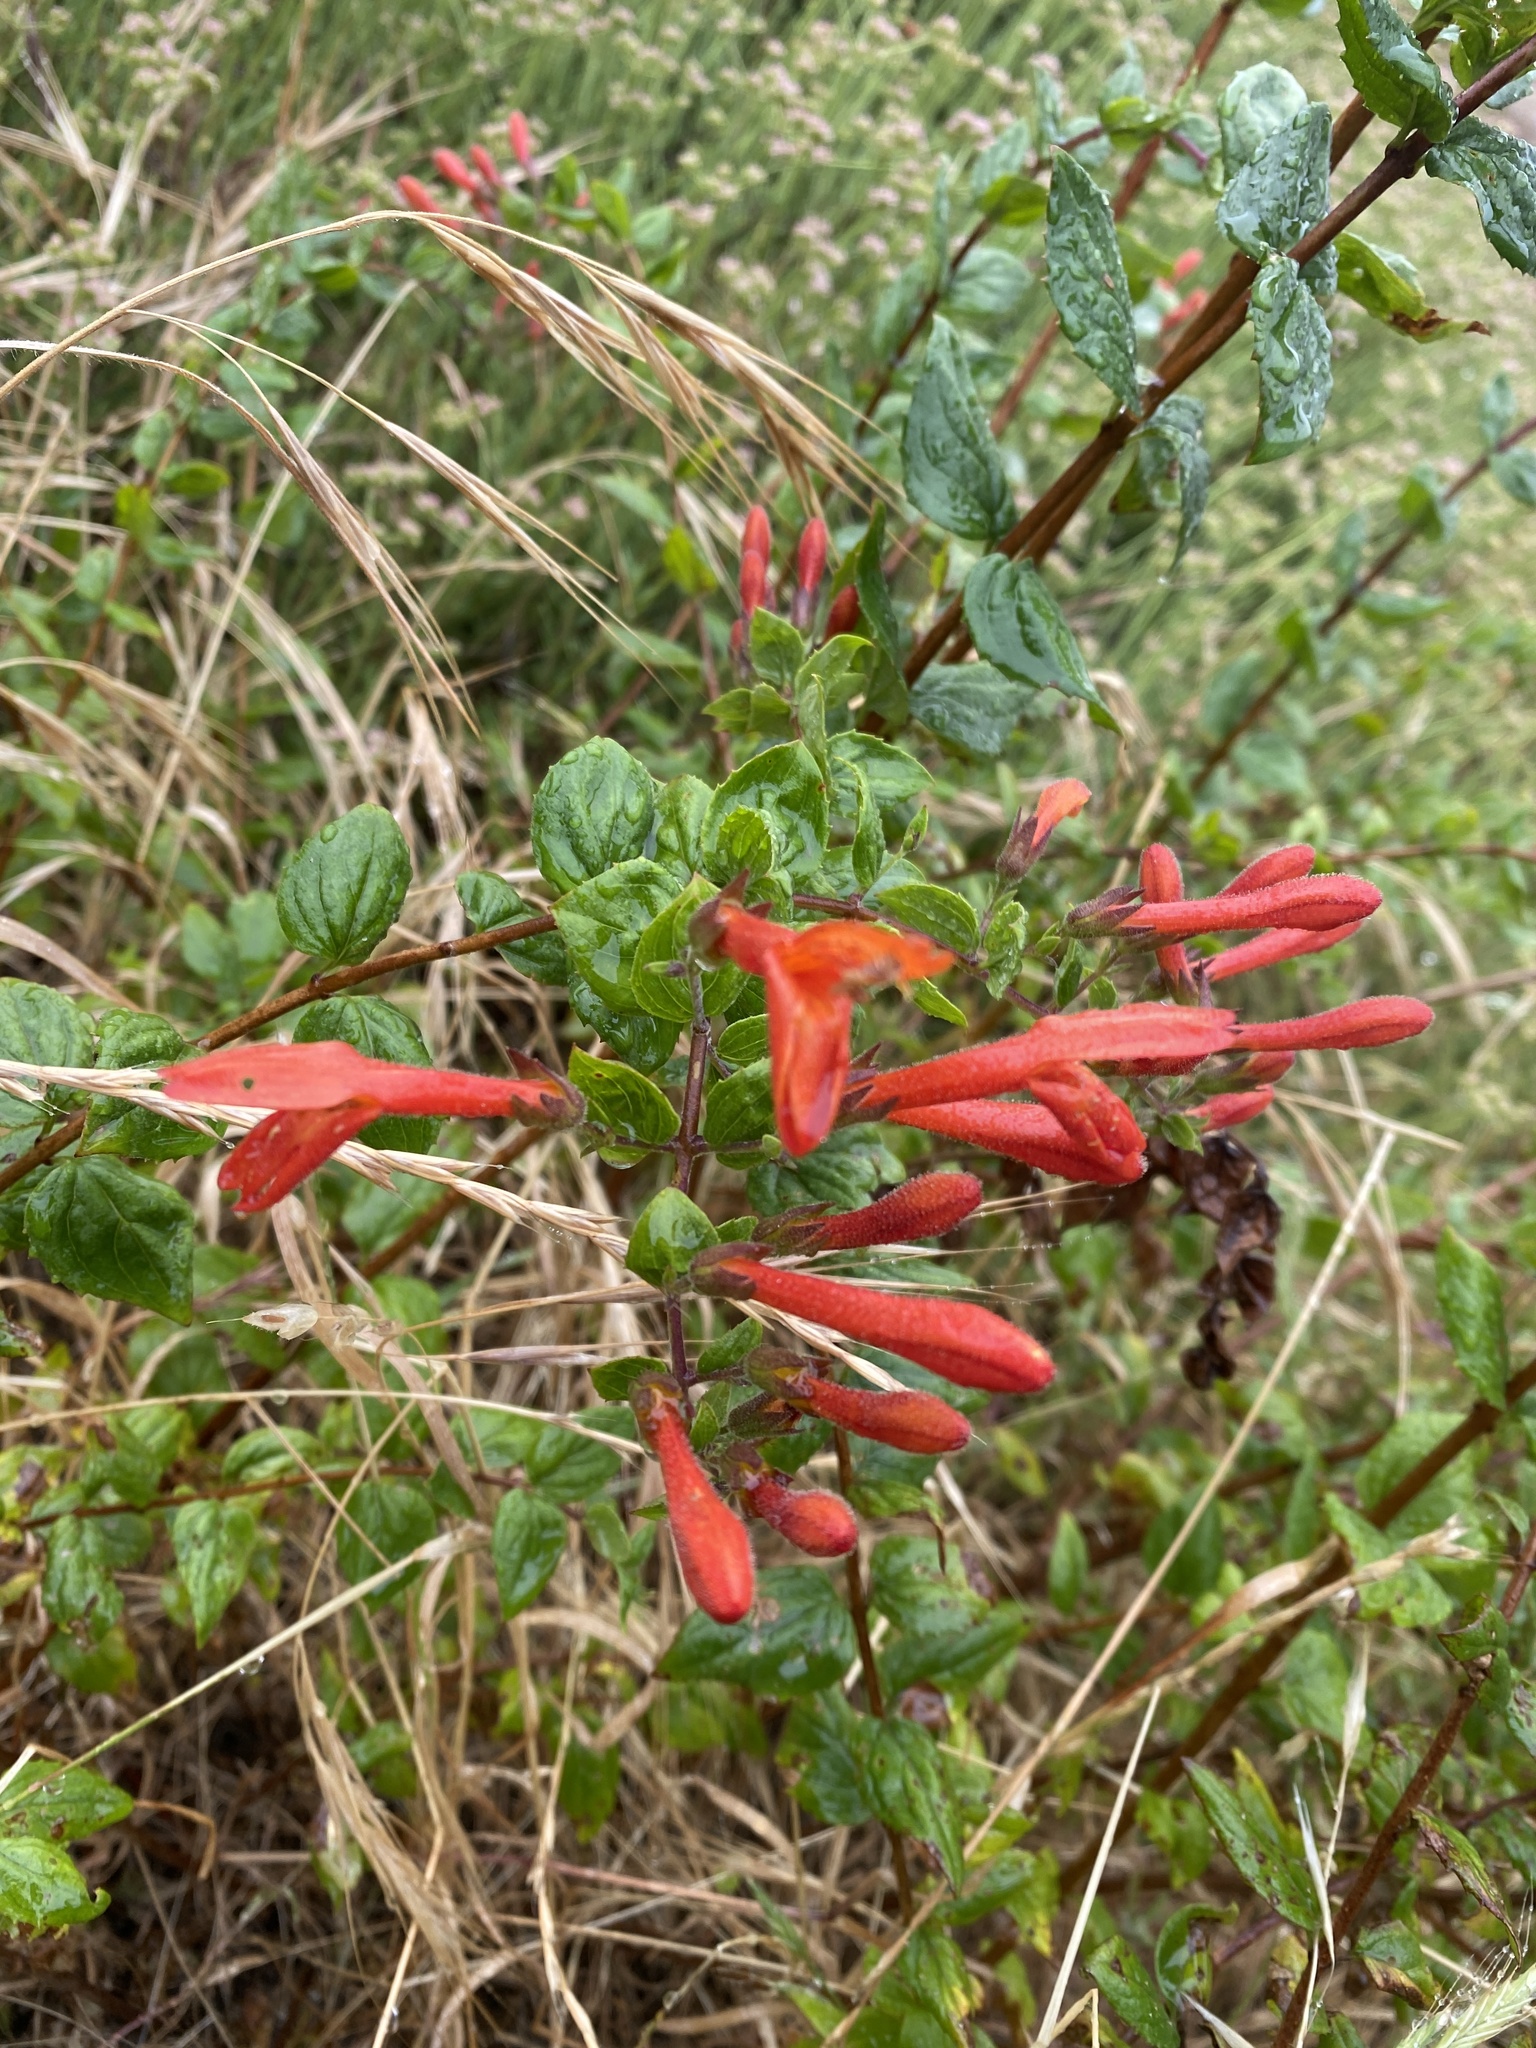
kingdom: Plantae
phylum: Tracheophyta
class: Magnoliopsida
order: Lamiales
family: Plantaginaceae
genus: Keckiella
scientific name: Keckiella cordifolia
